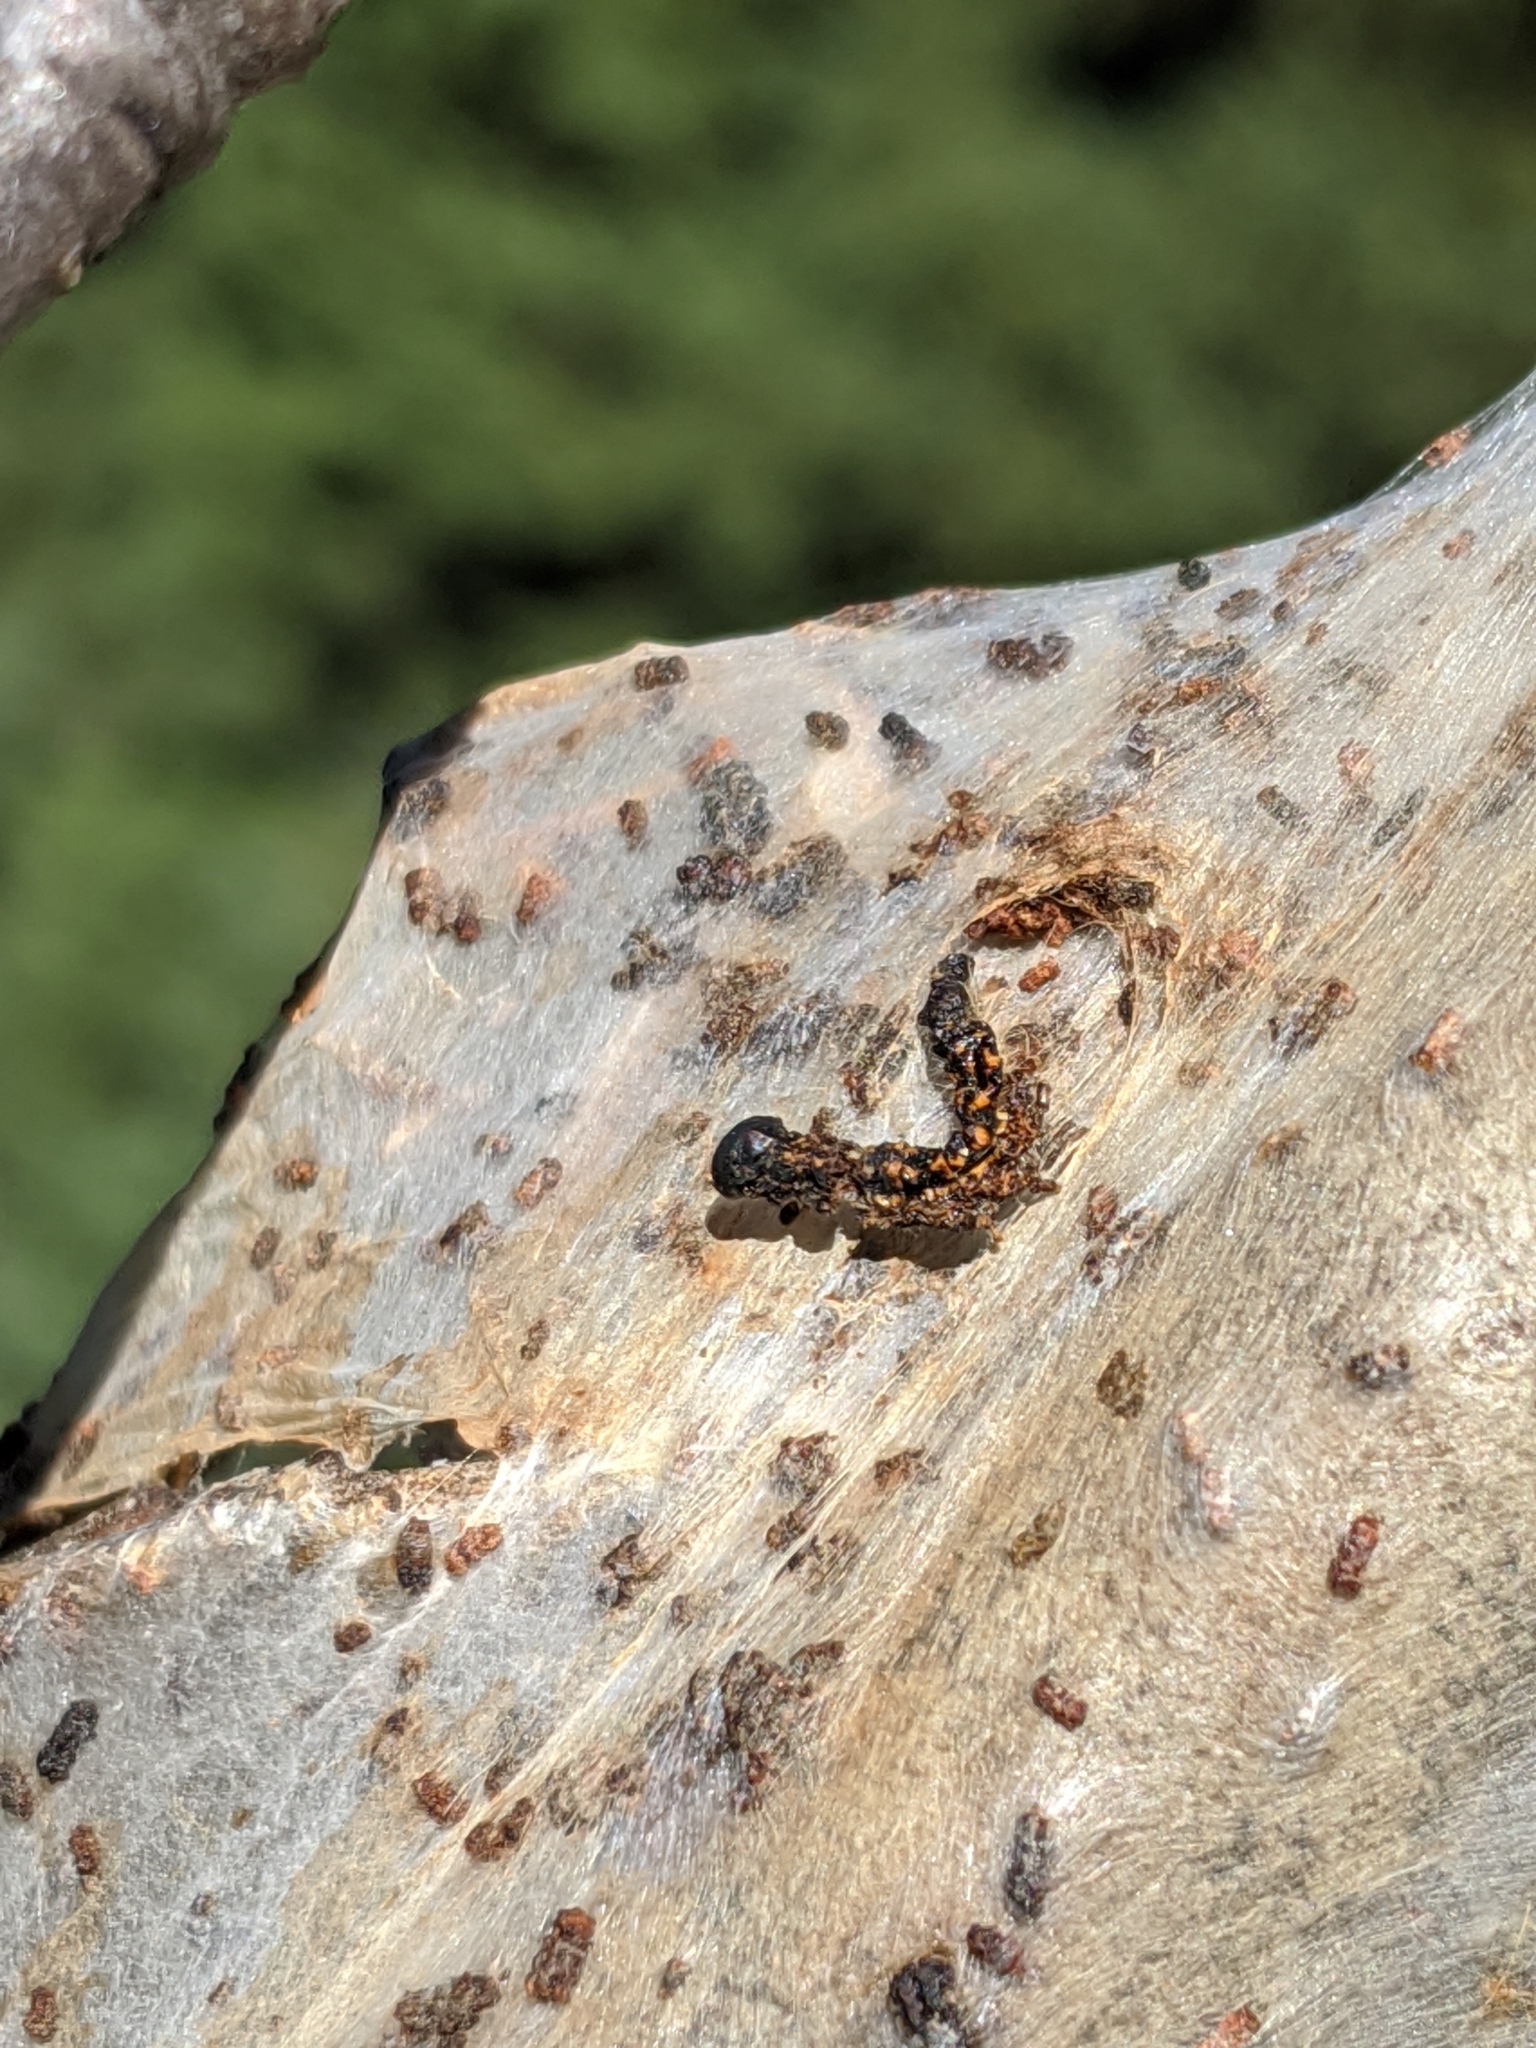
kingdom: Animalia
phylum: Arthropoda
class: Insecta
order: Lepidoptera
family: Lasiocampidae
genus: Malacosoma
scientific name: Malacosoma californica
